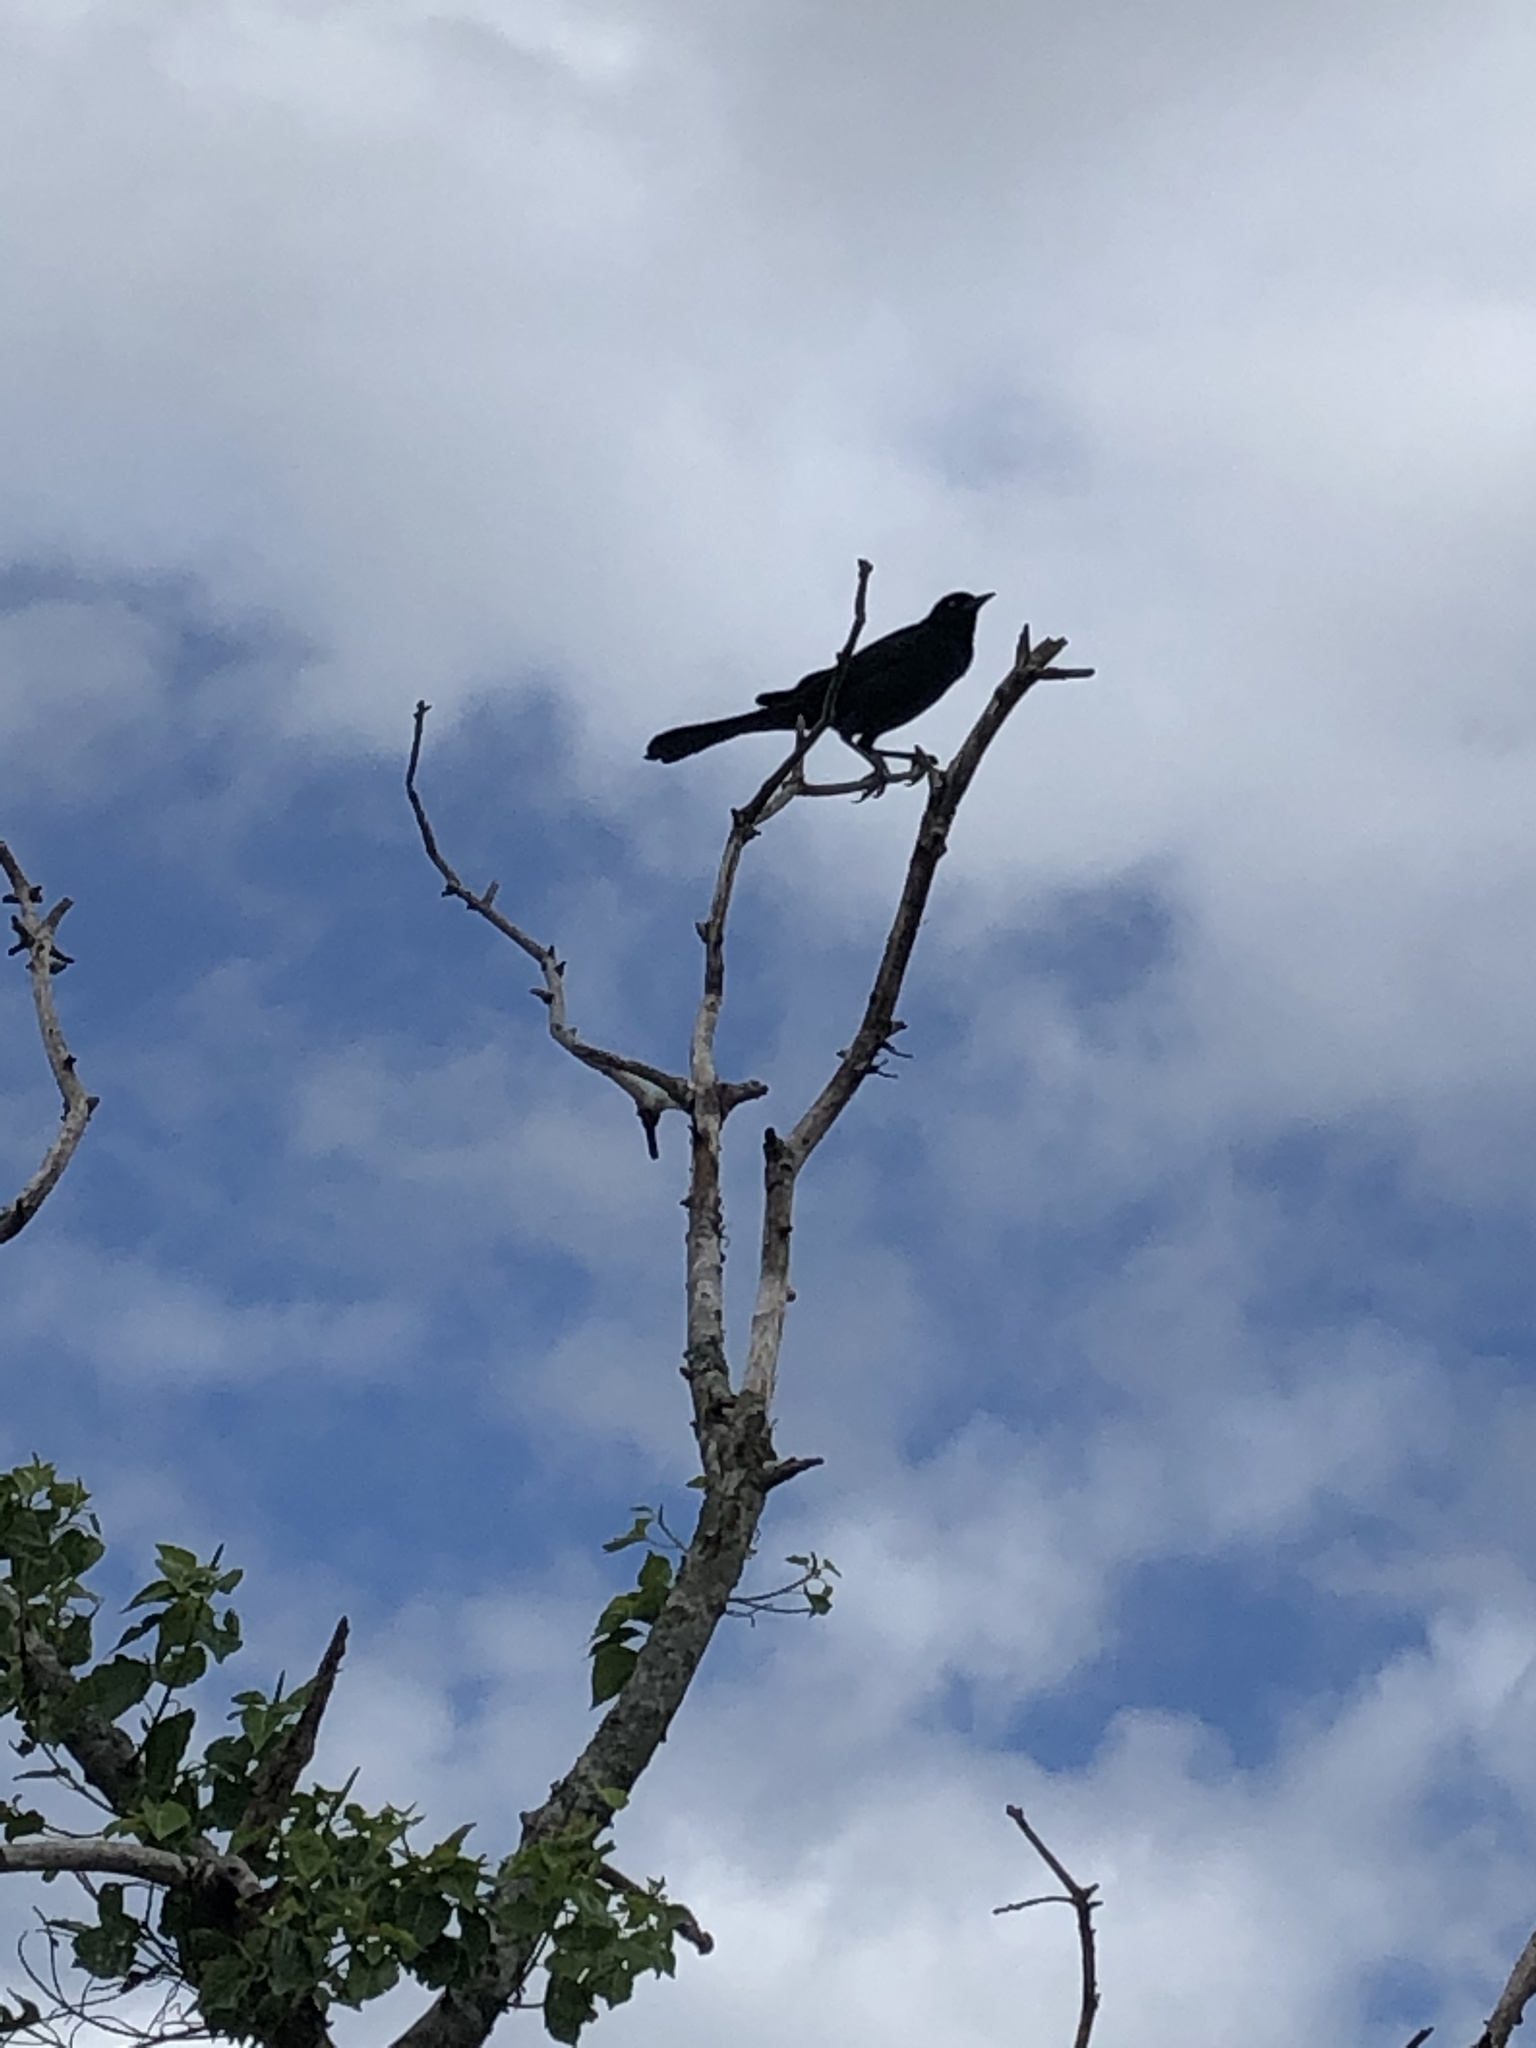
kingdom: Animalia
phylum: Chordata
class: Aves
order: Passeriformes
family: Icteridae
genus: Quiscalus
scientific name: Quiscalus major
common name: Boat-tailed grackle
